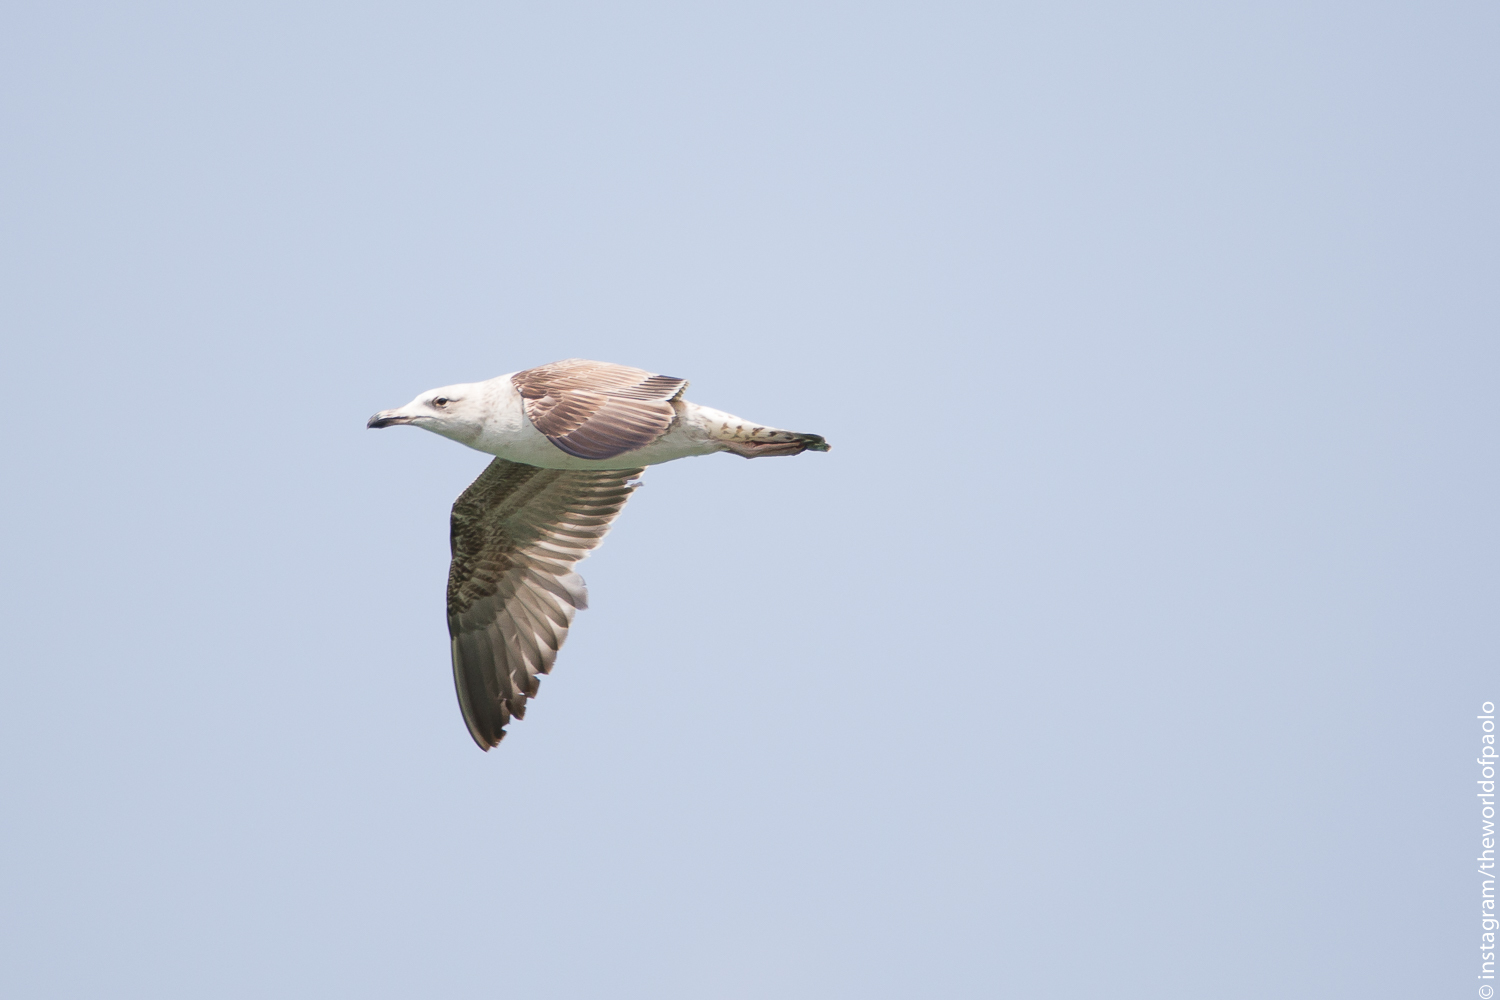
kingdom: Animalia
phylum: Chordata
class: Aves
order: Charadriiformes
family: Laridae
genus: Larus
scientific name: Larus michahellis
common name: Yellow-legged gull
